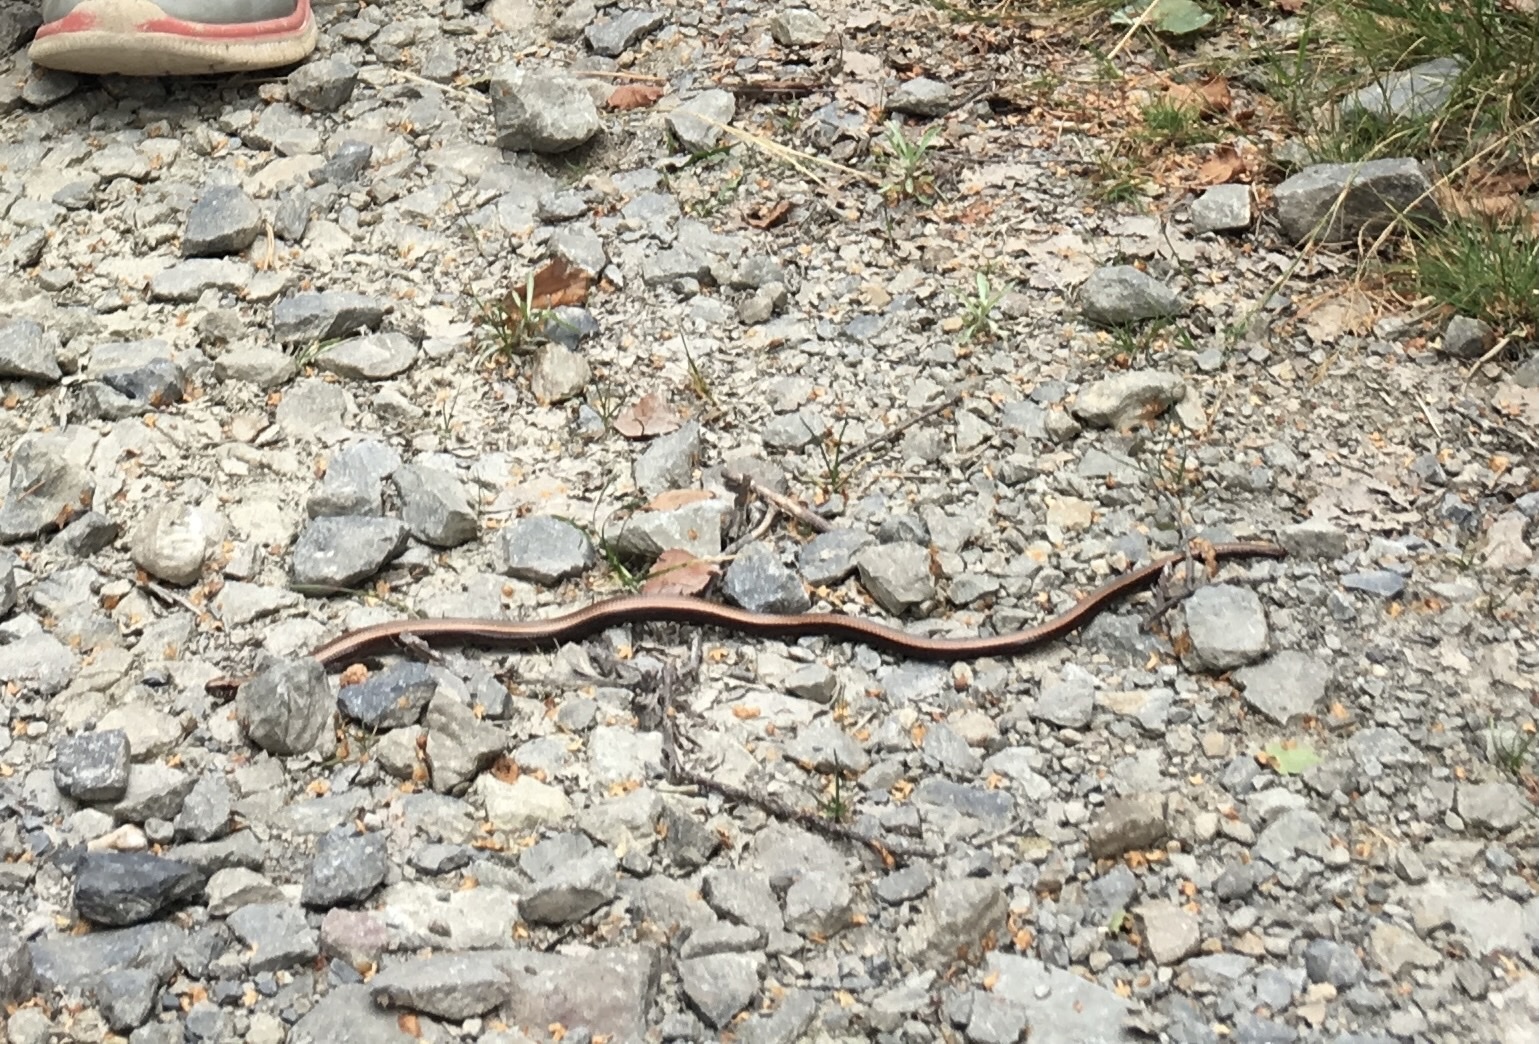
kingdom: Animalia
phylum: Chordata
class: Squamata
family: Anguidae
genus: Anguis
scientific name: Anguis fragilis
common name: Slow worm
